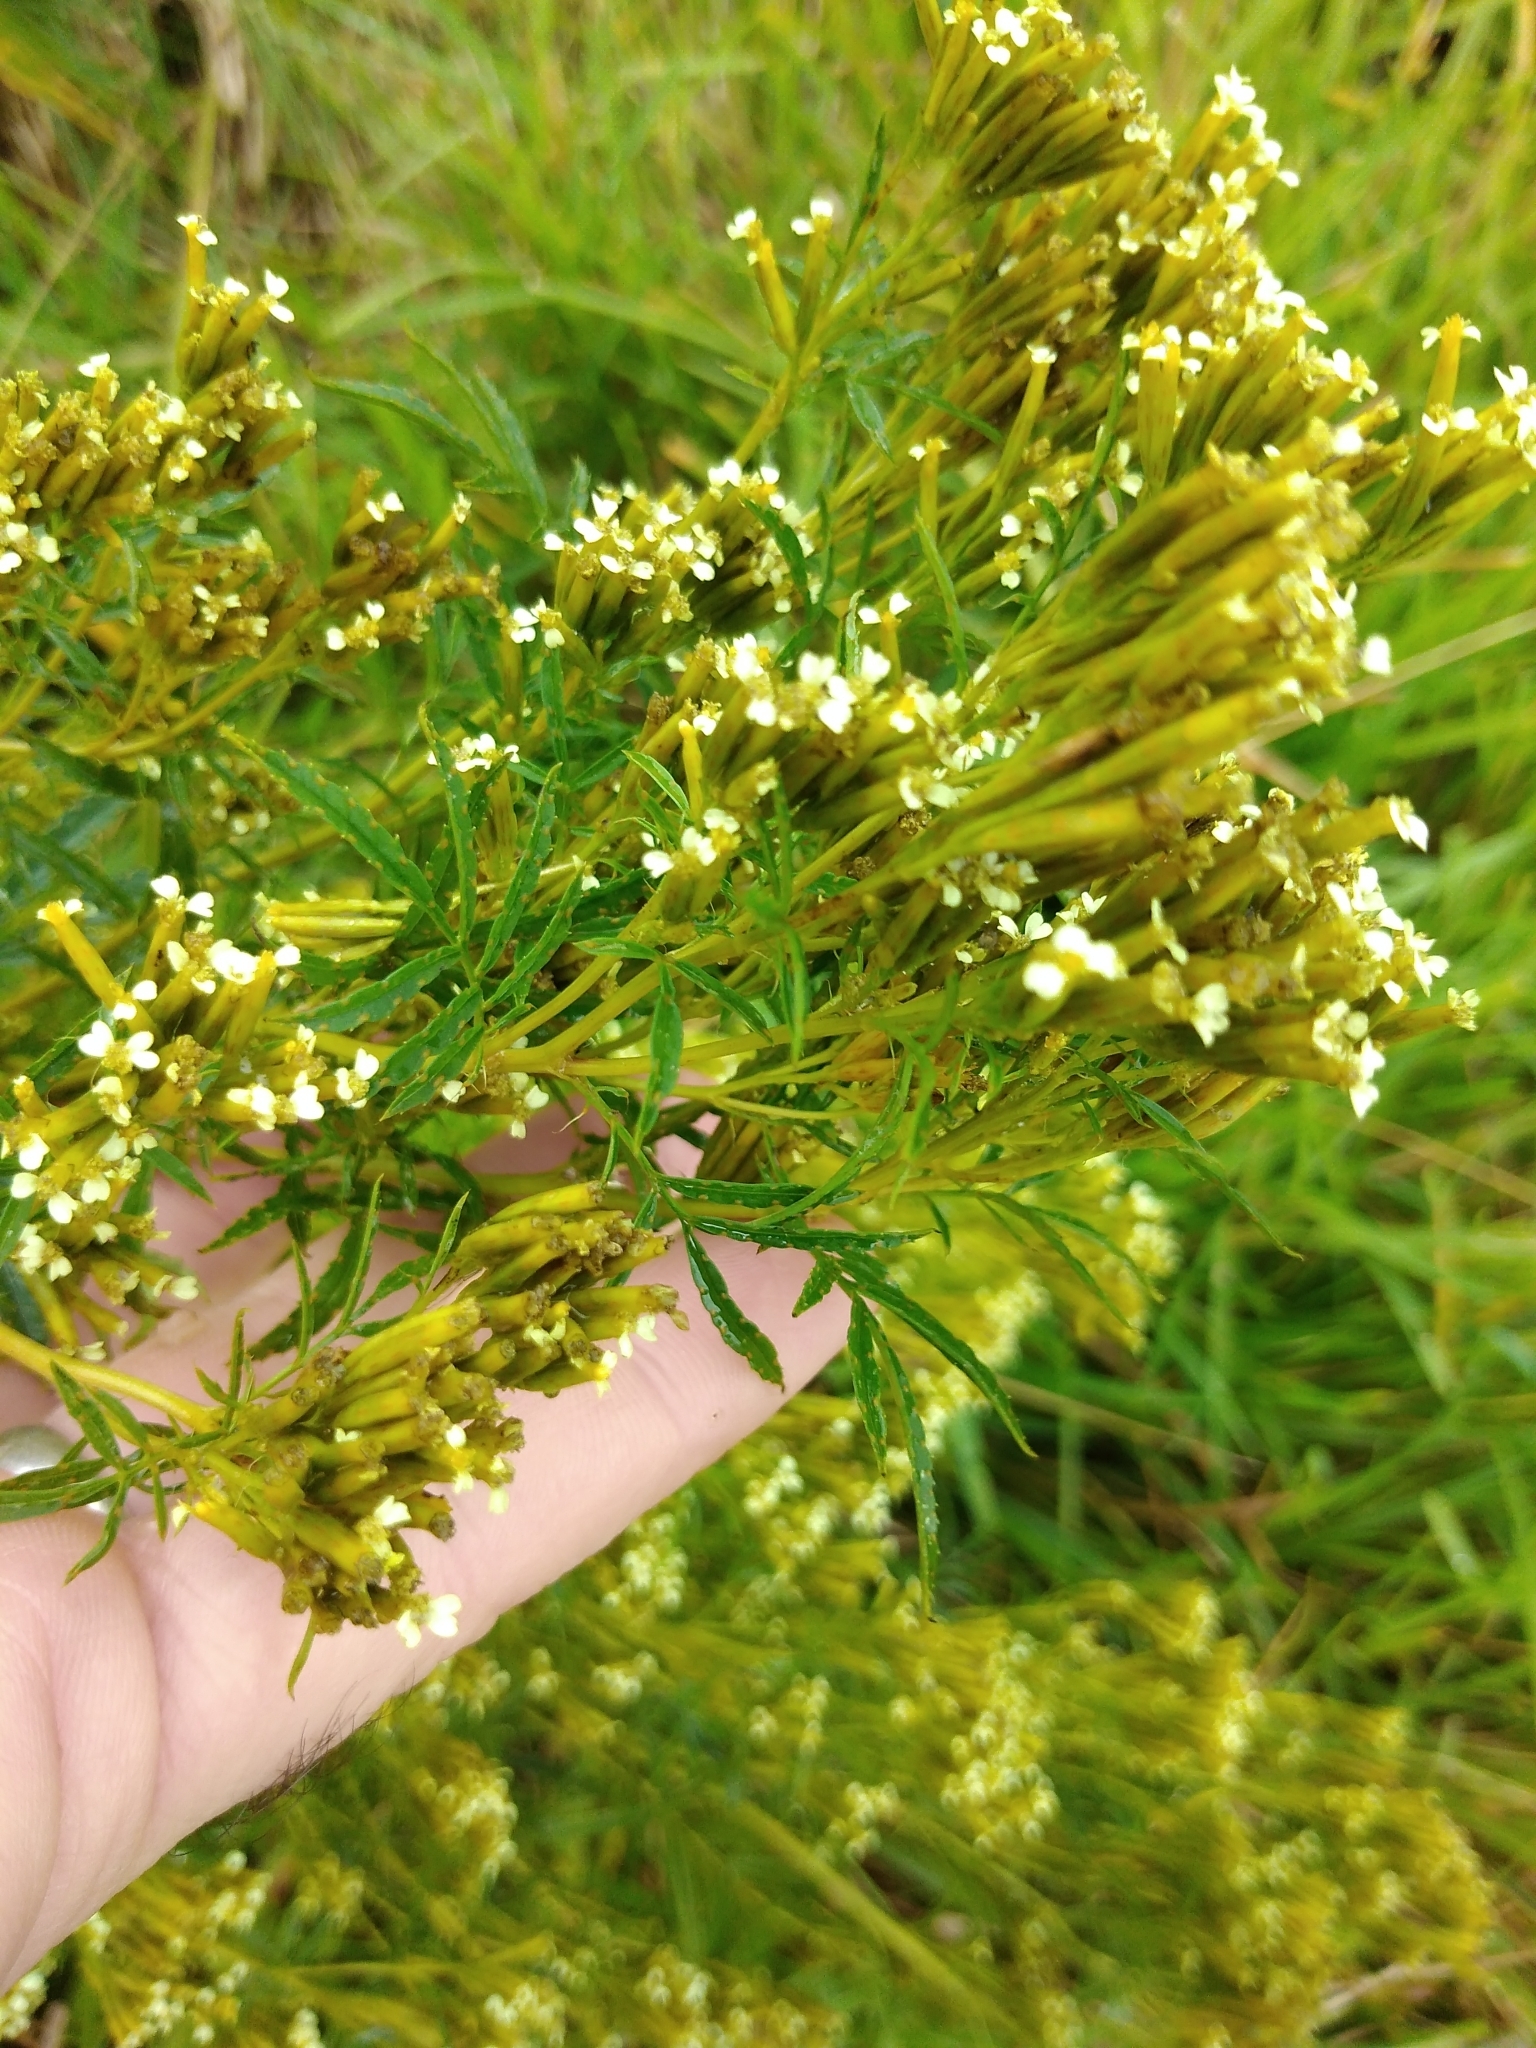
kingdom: Plantae
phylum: Tracheophyta
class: Magnoliopsida
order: Asterales
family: Asteraceae
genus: Tagetes
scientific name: Tagetes minuta
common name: Muster john henry
